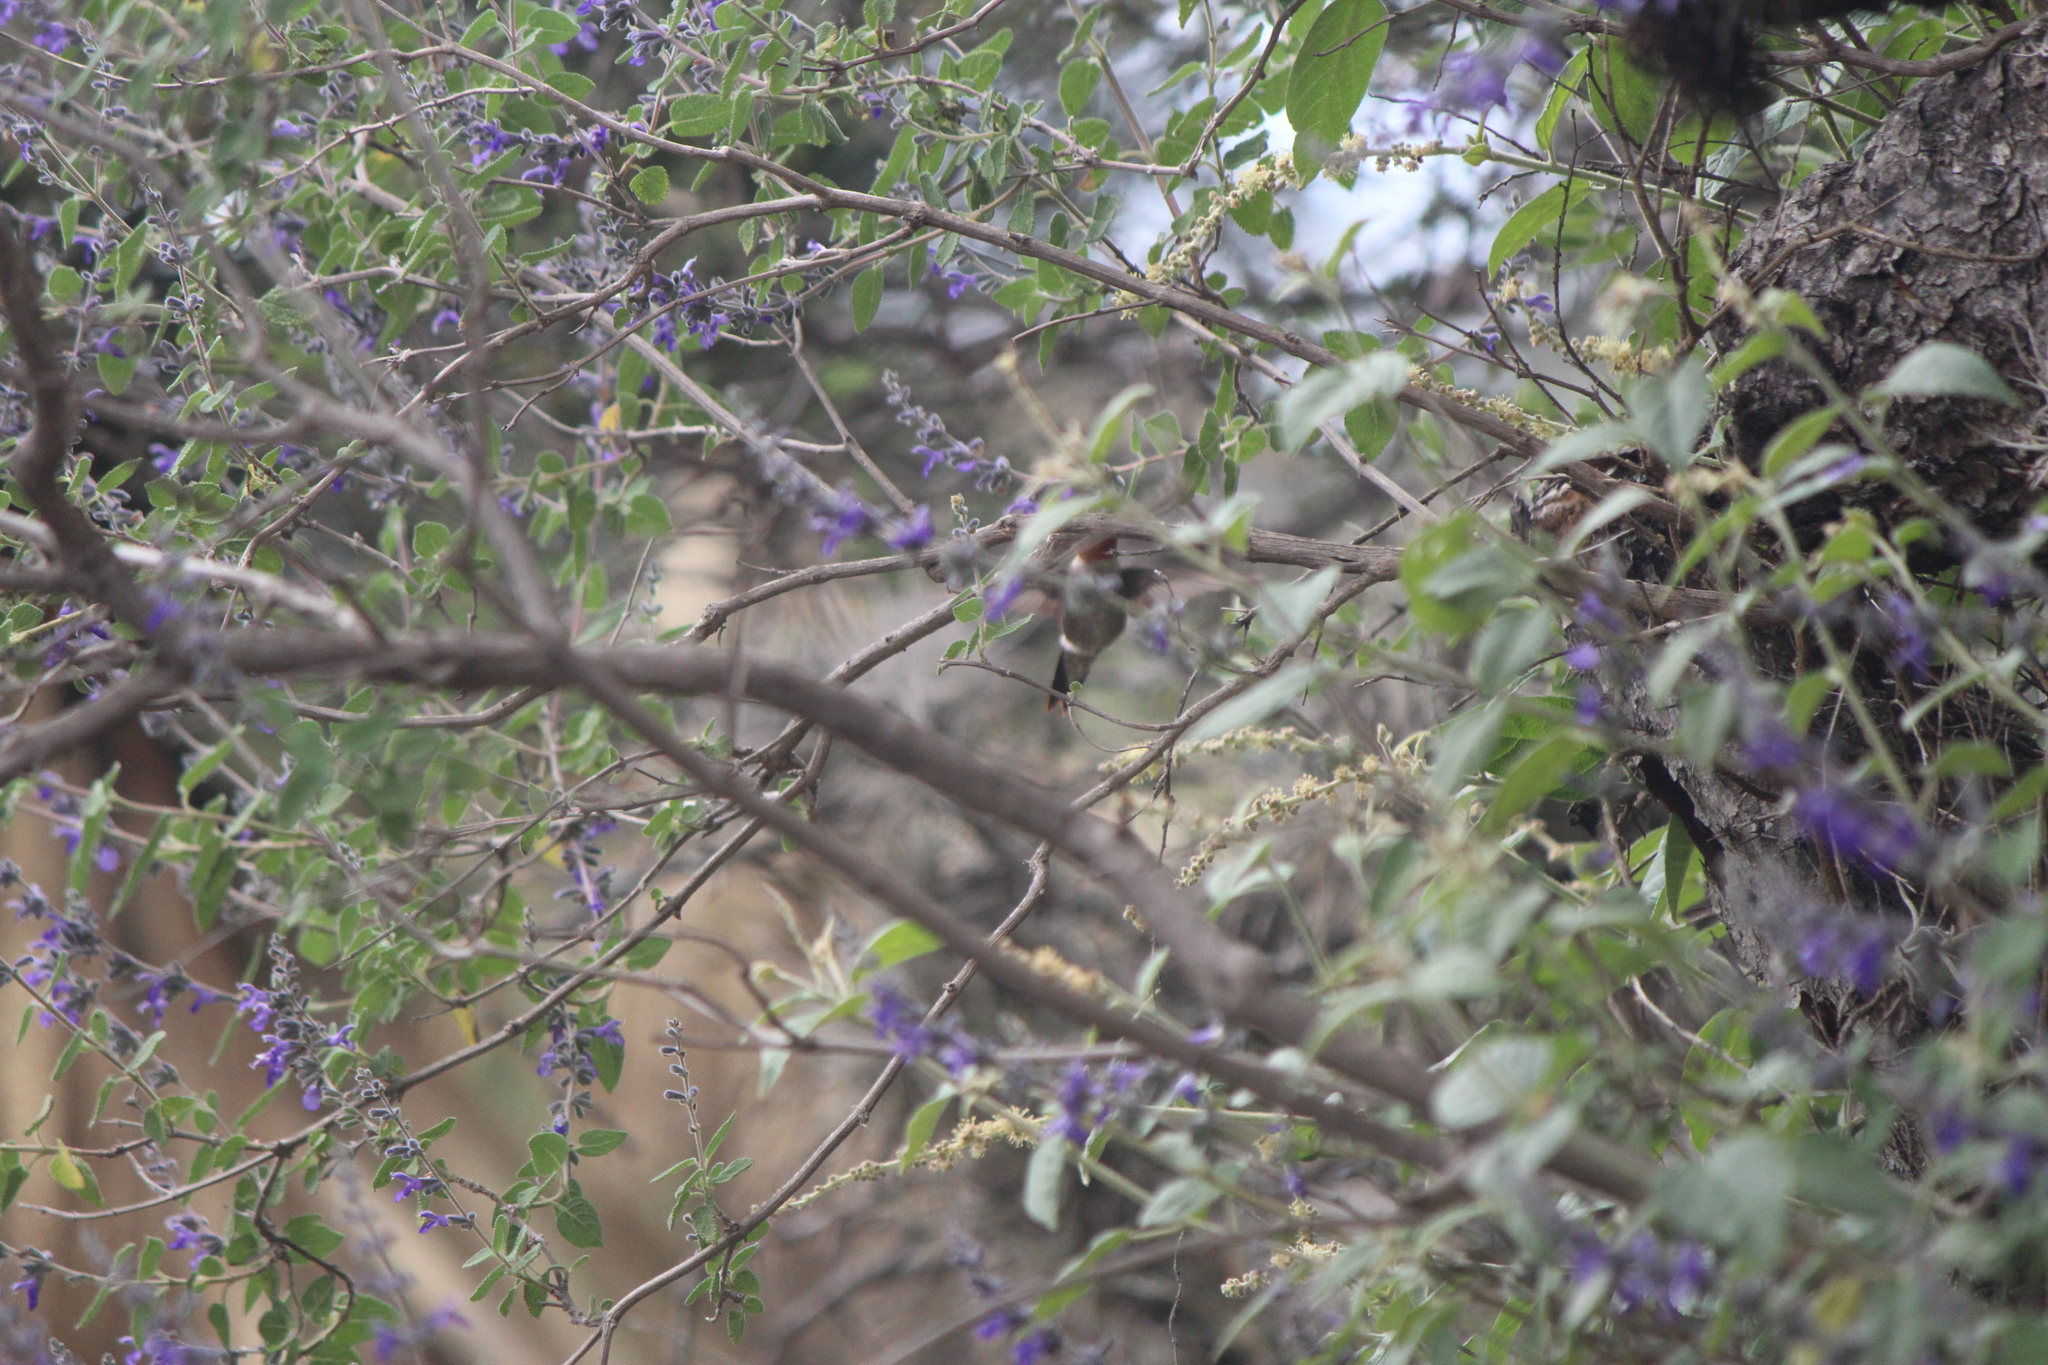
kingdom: Animalia
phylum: Chordata
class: Aves
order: Apodiformes
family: Trochilidae
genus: Archilochus
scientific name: Archilochus colubris
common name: Ruby-throated hummingbird
